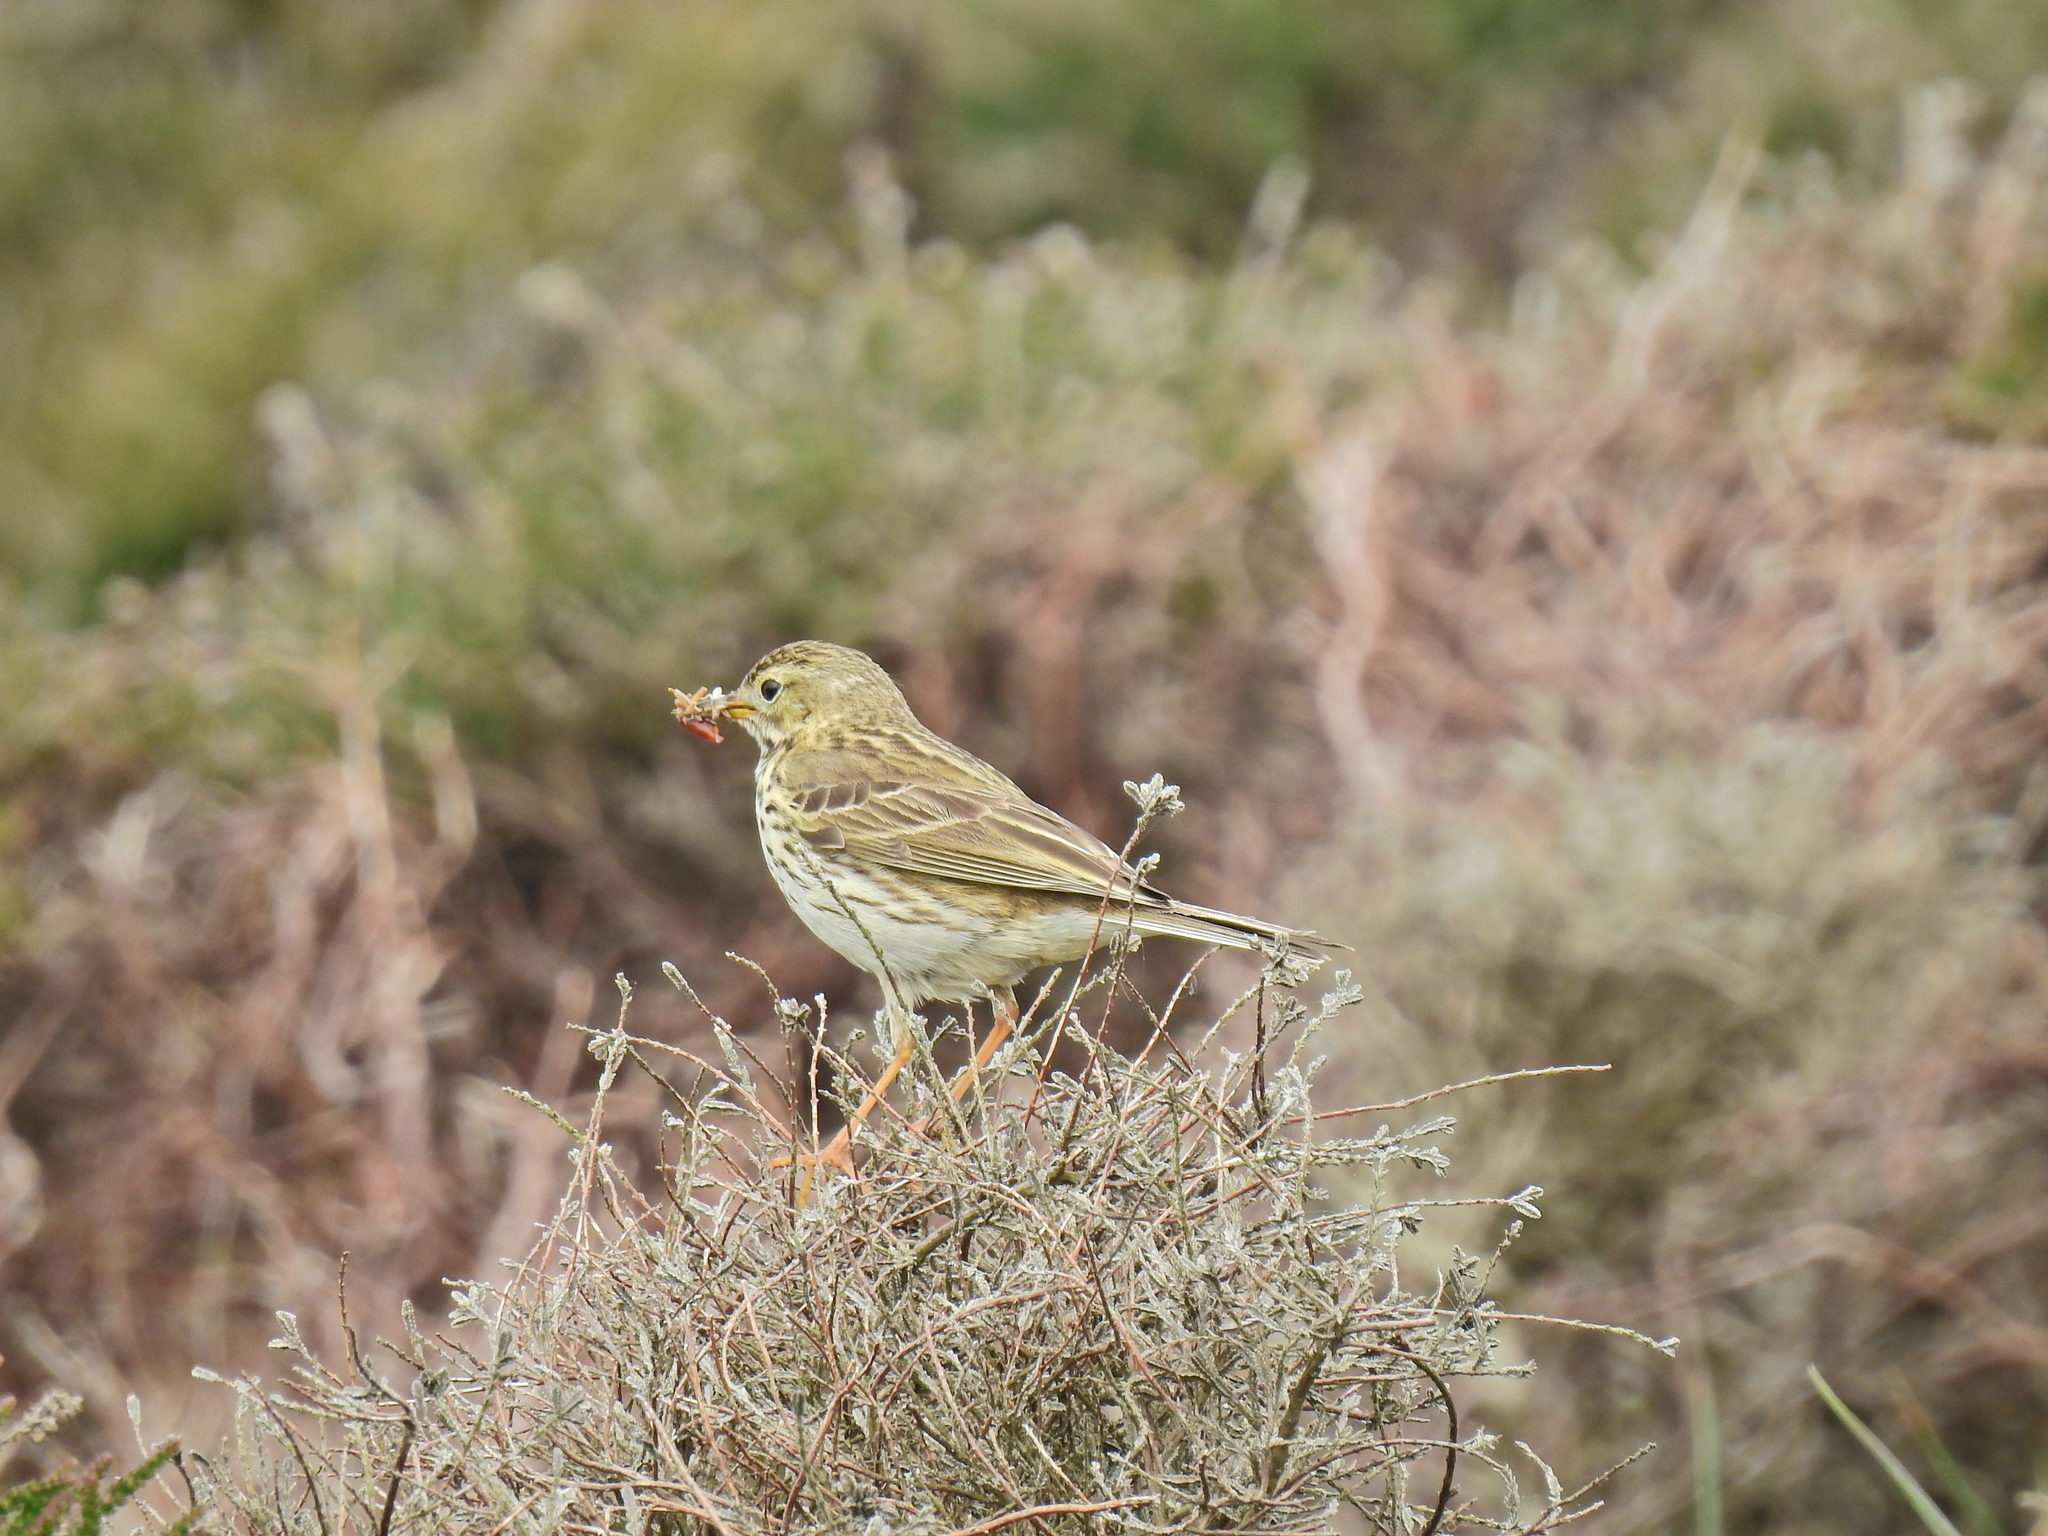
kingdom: Animalia
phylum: Chordata
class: Aves
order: Passeriformes
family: Motacillidae
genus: Anthus
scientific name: Anthus pratensis
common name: Meadow pipit
